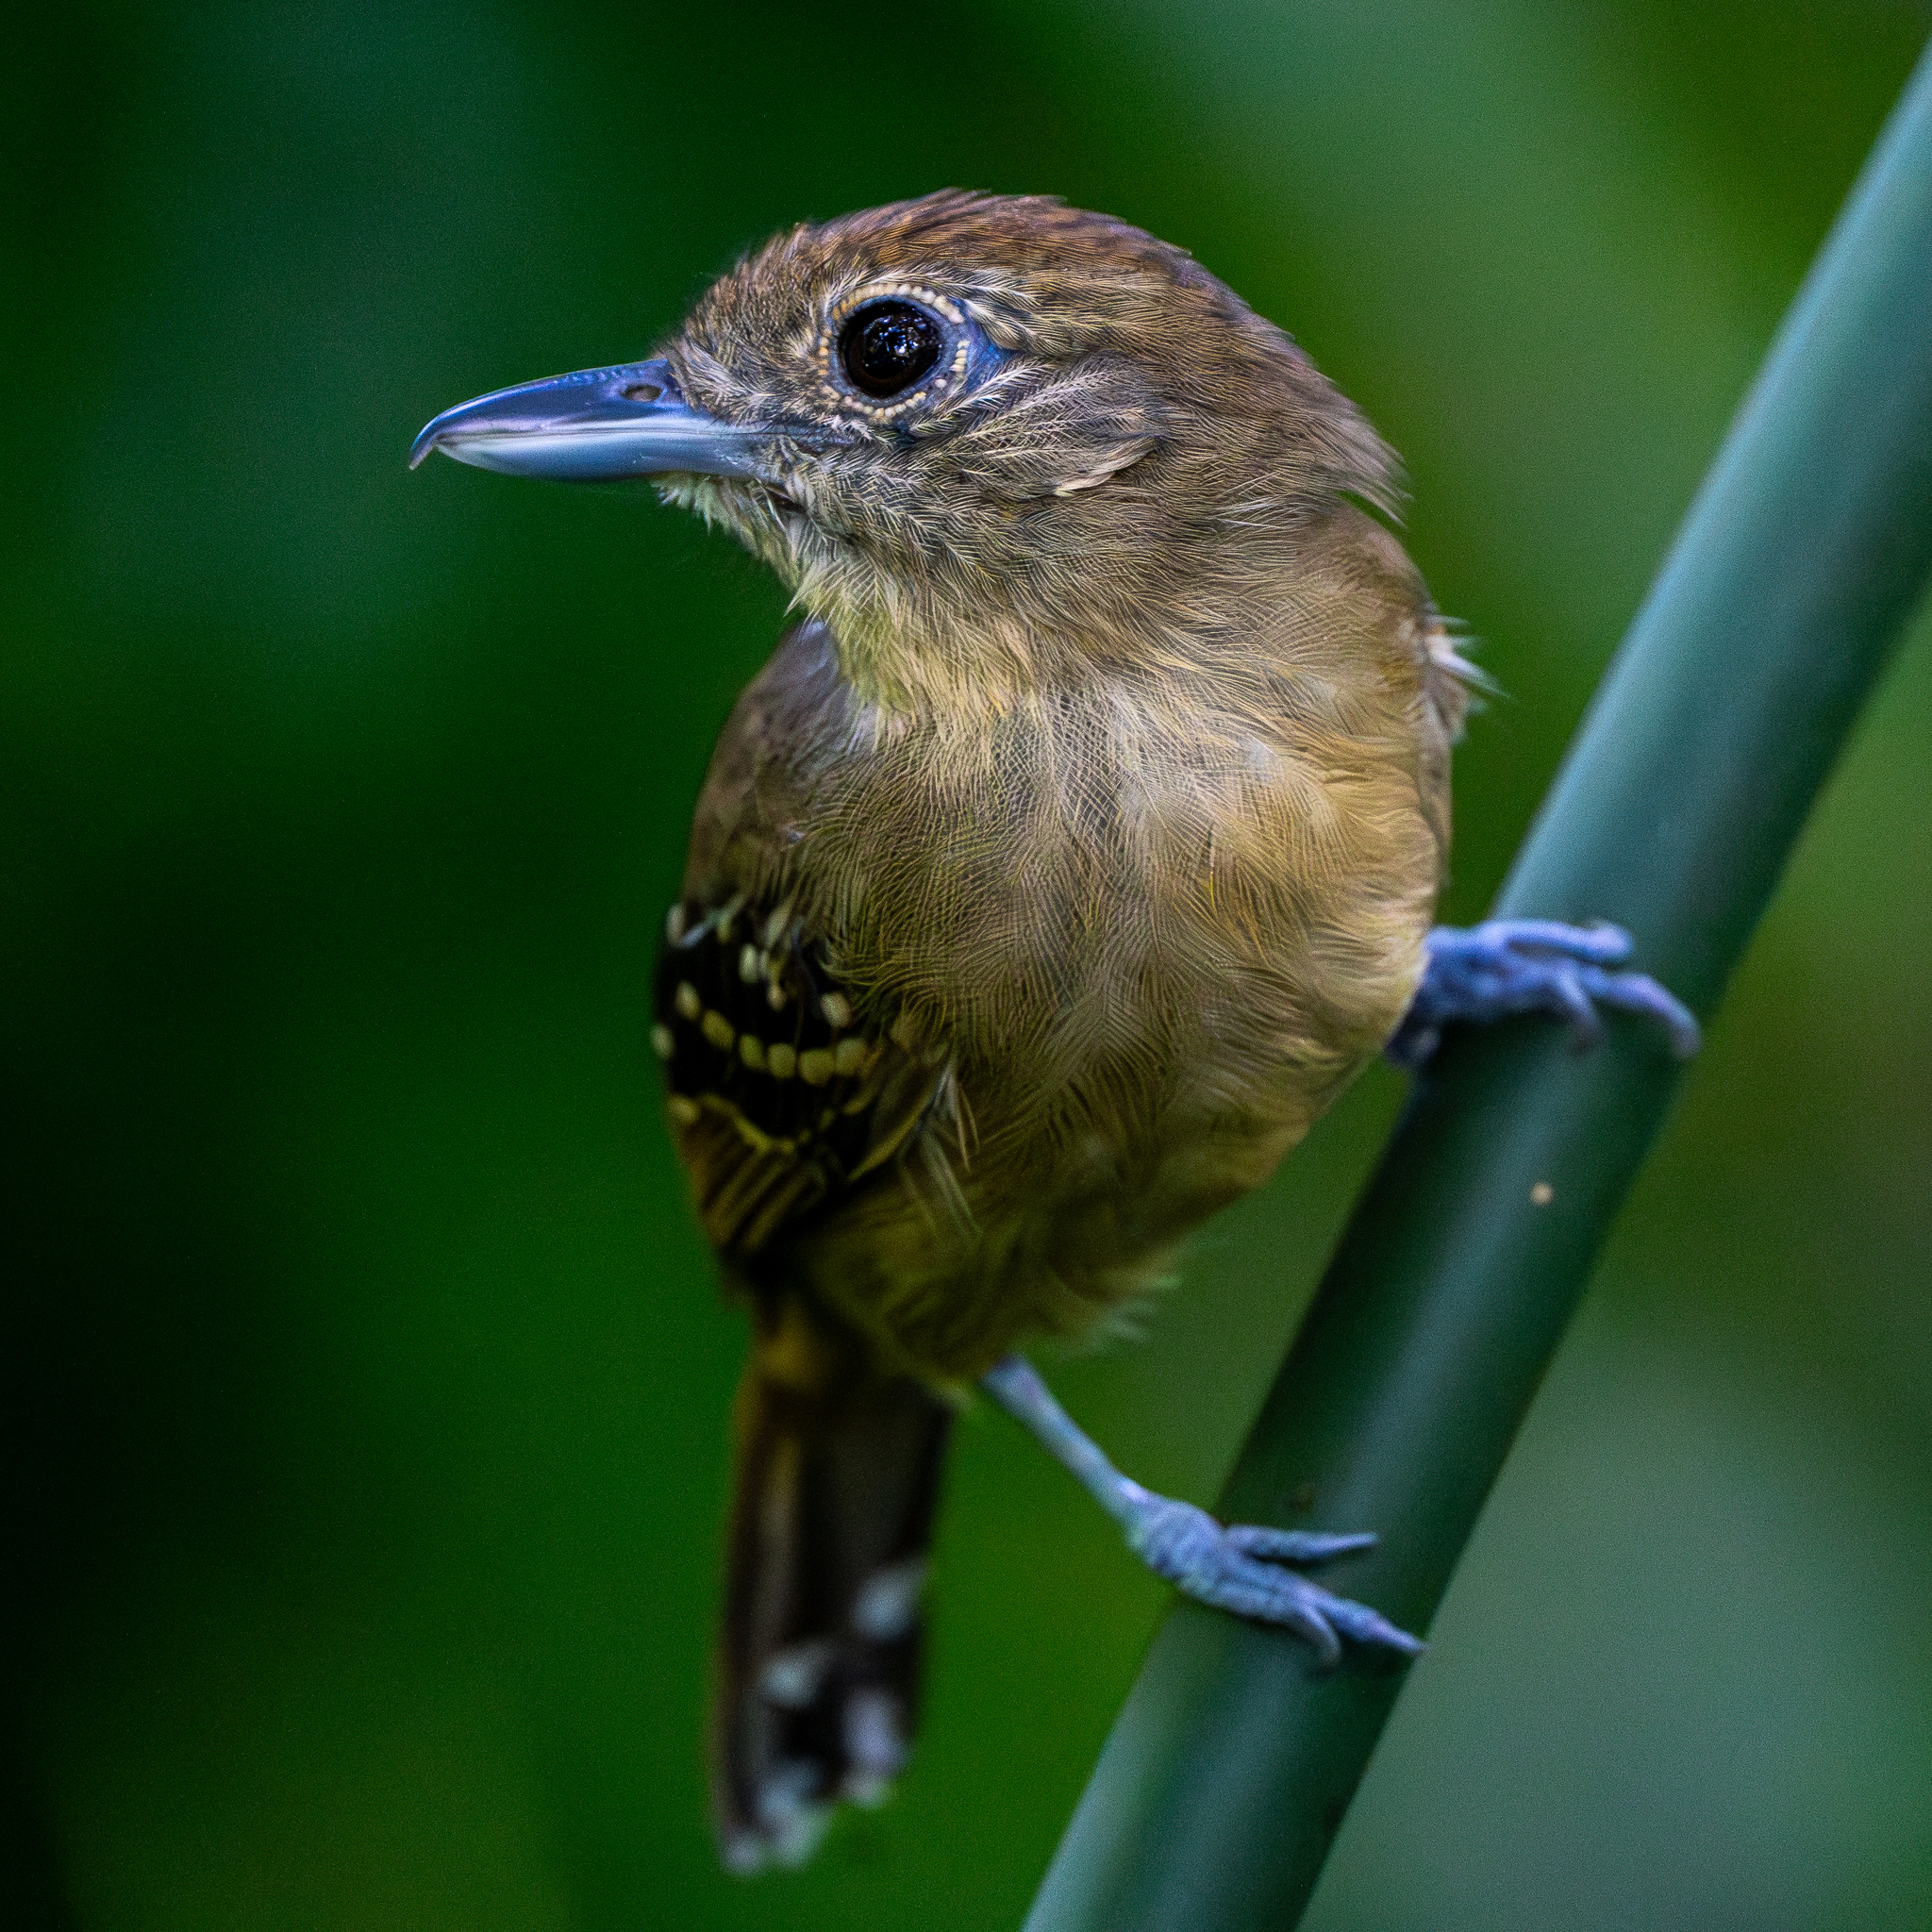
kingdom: Animalia
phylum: Chordata
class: Aves
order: Passeriformes
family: Thamnophilidae
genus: Thamnophilus
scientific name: Thamnophilus atrinucha
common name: Black-crowned antshrike
